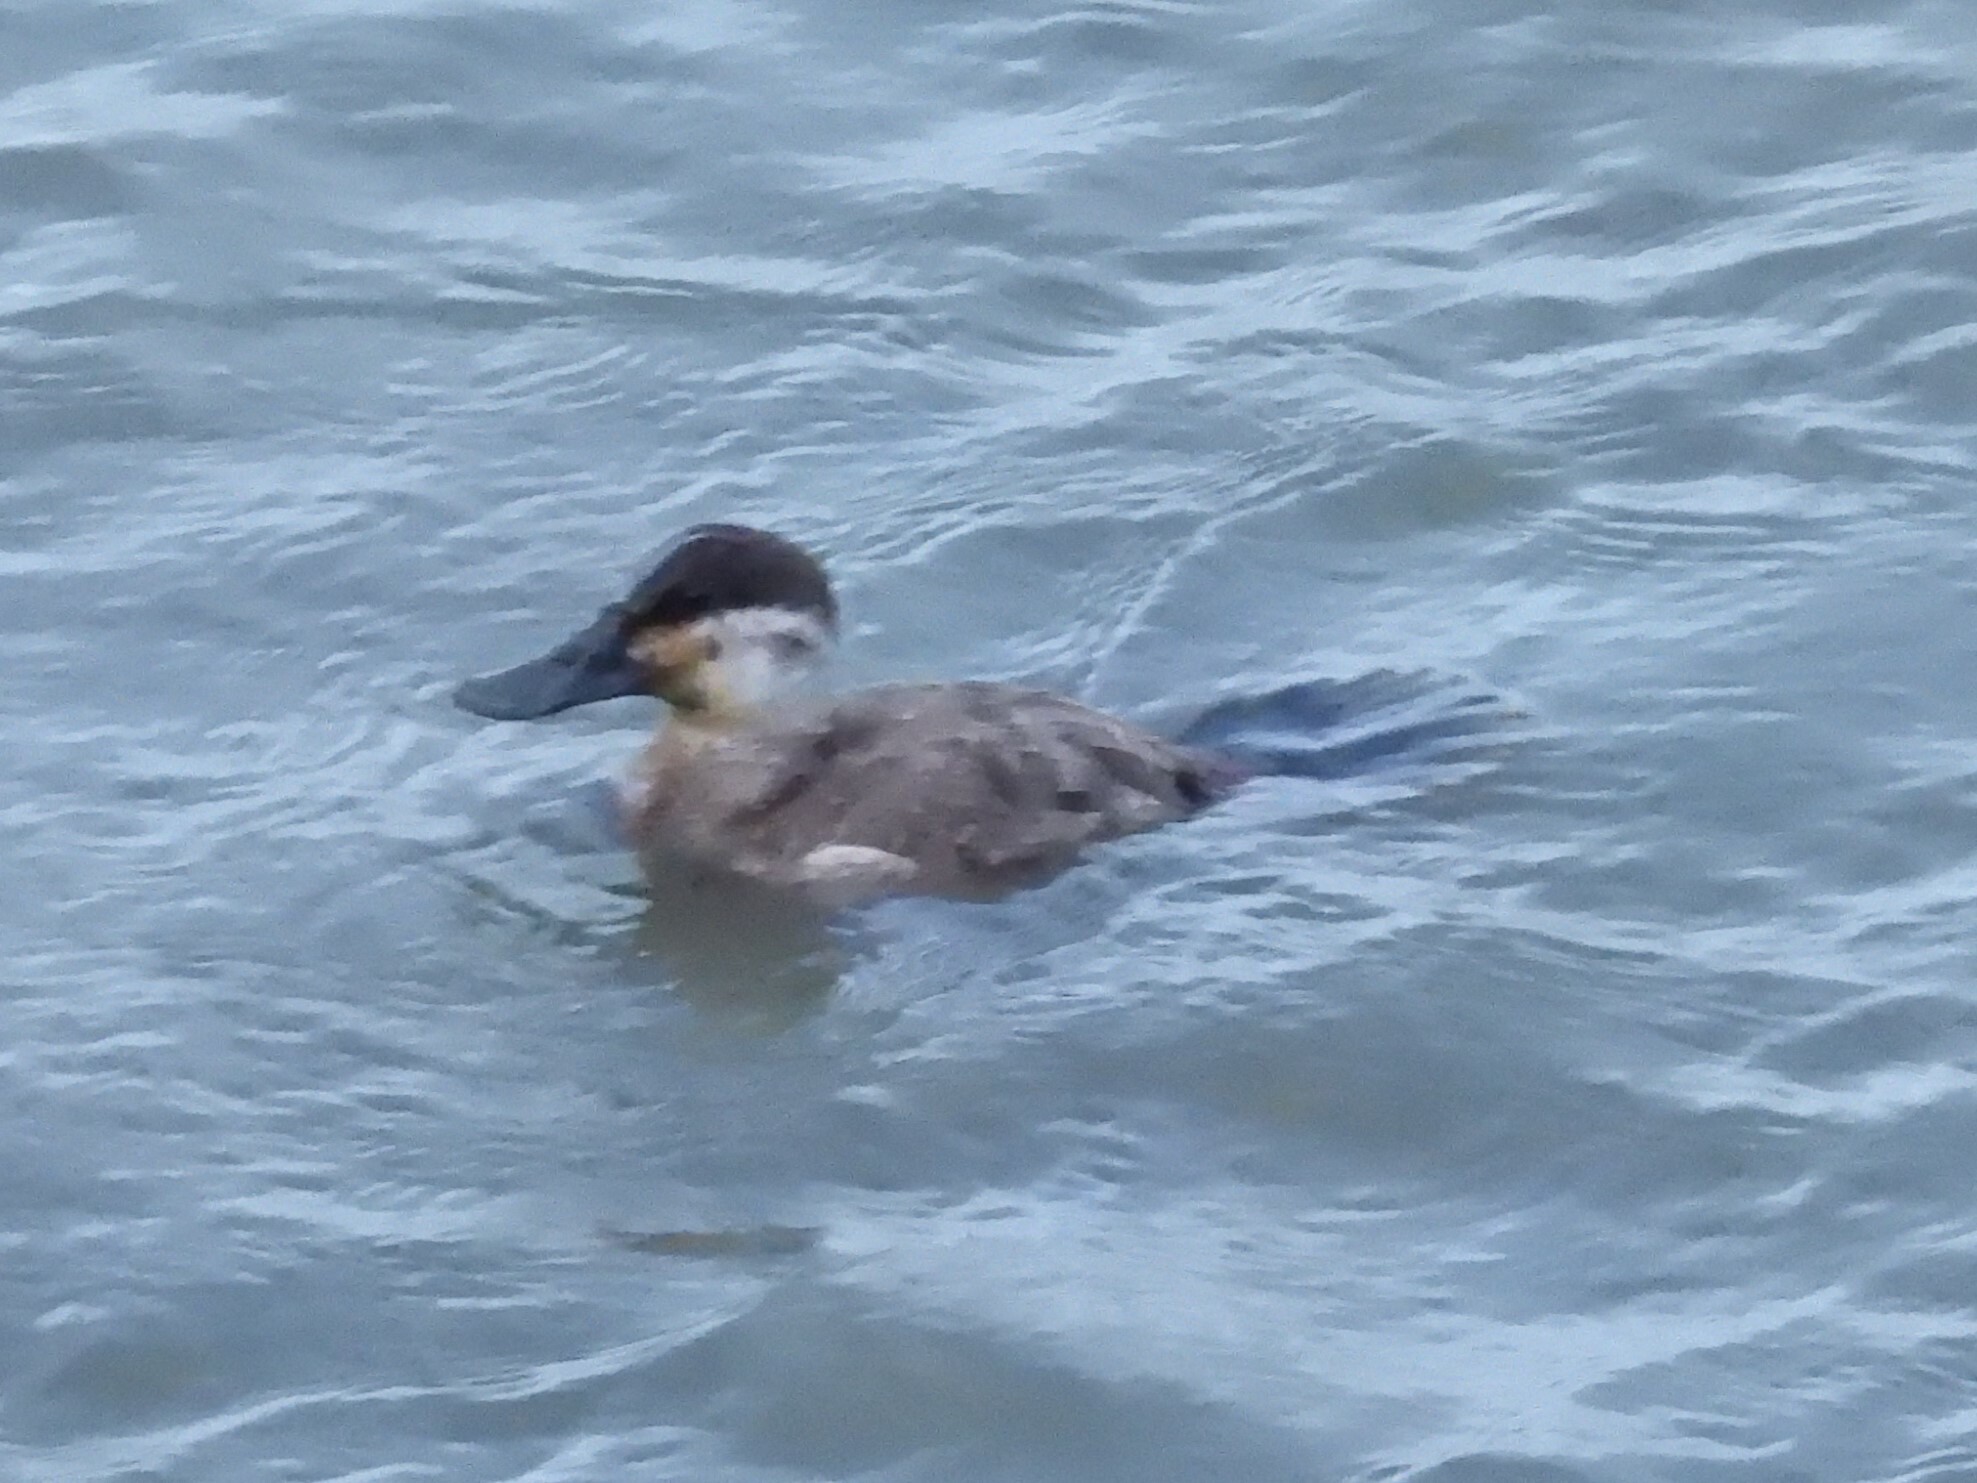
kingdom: Animalia
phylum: Chordata
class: Aves
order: Anseriformes
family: Anatidae
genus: Oxyura
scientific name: Oxyura jamaicensis
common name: Ruddy duck
